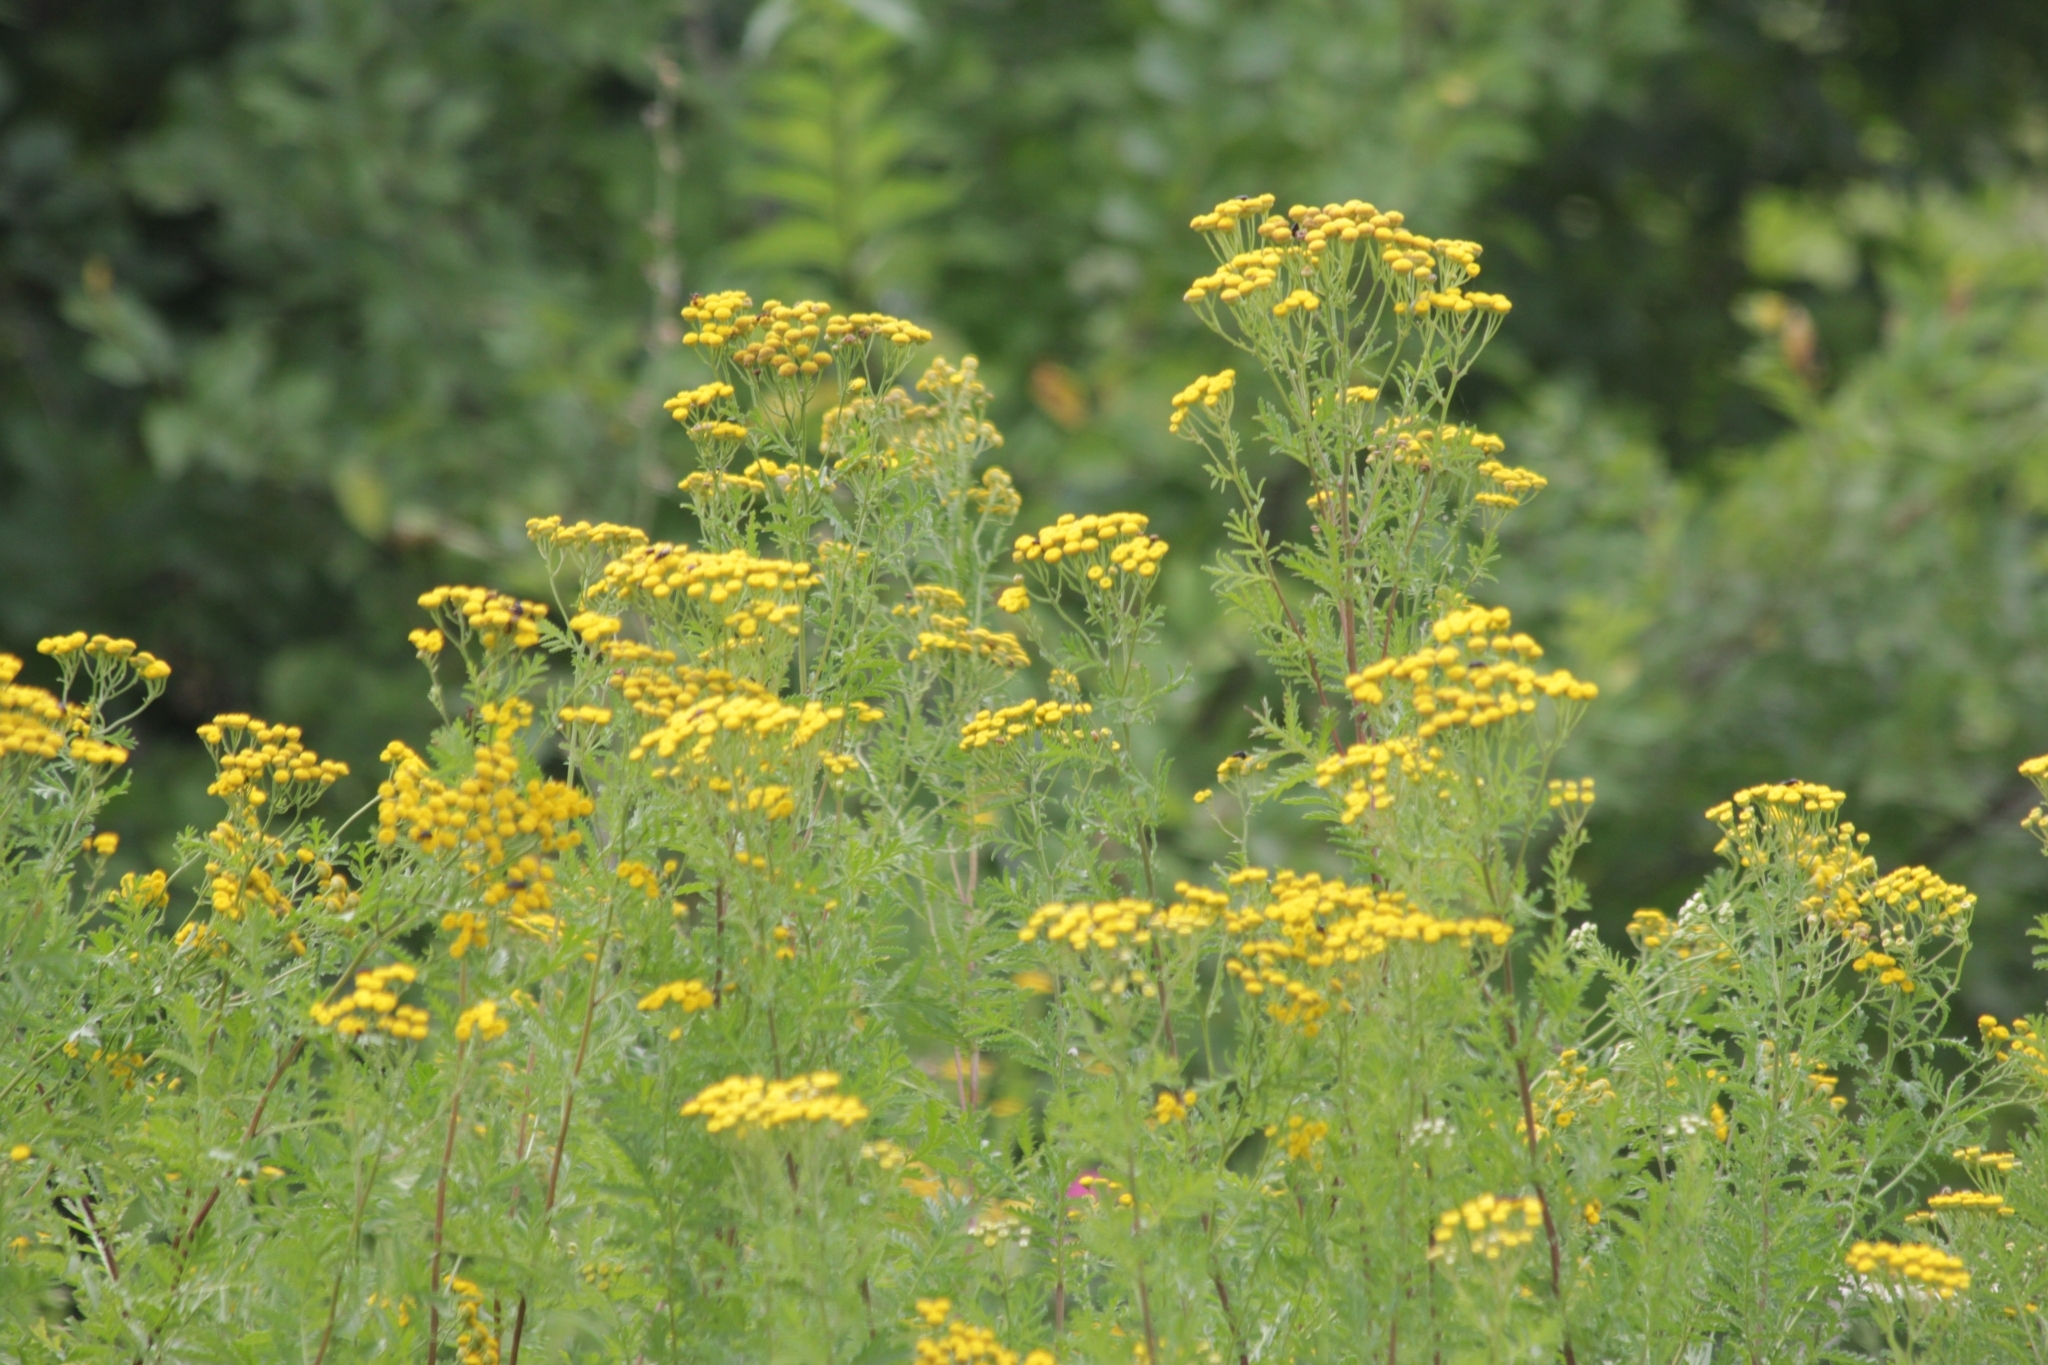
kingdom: Plantae
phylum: Tracheophyta
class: Magnoliopsida
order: Asterales
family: Asteraceae
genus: Tanacetum
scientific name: Tanacetum vulgare
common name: Common tansy
